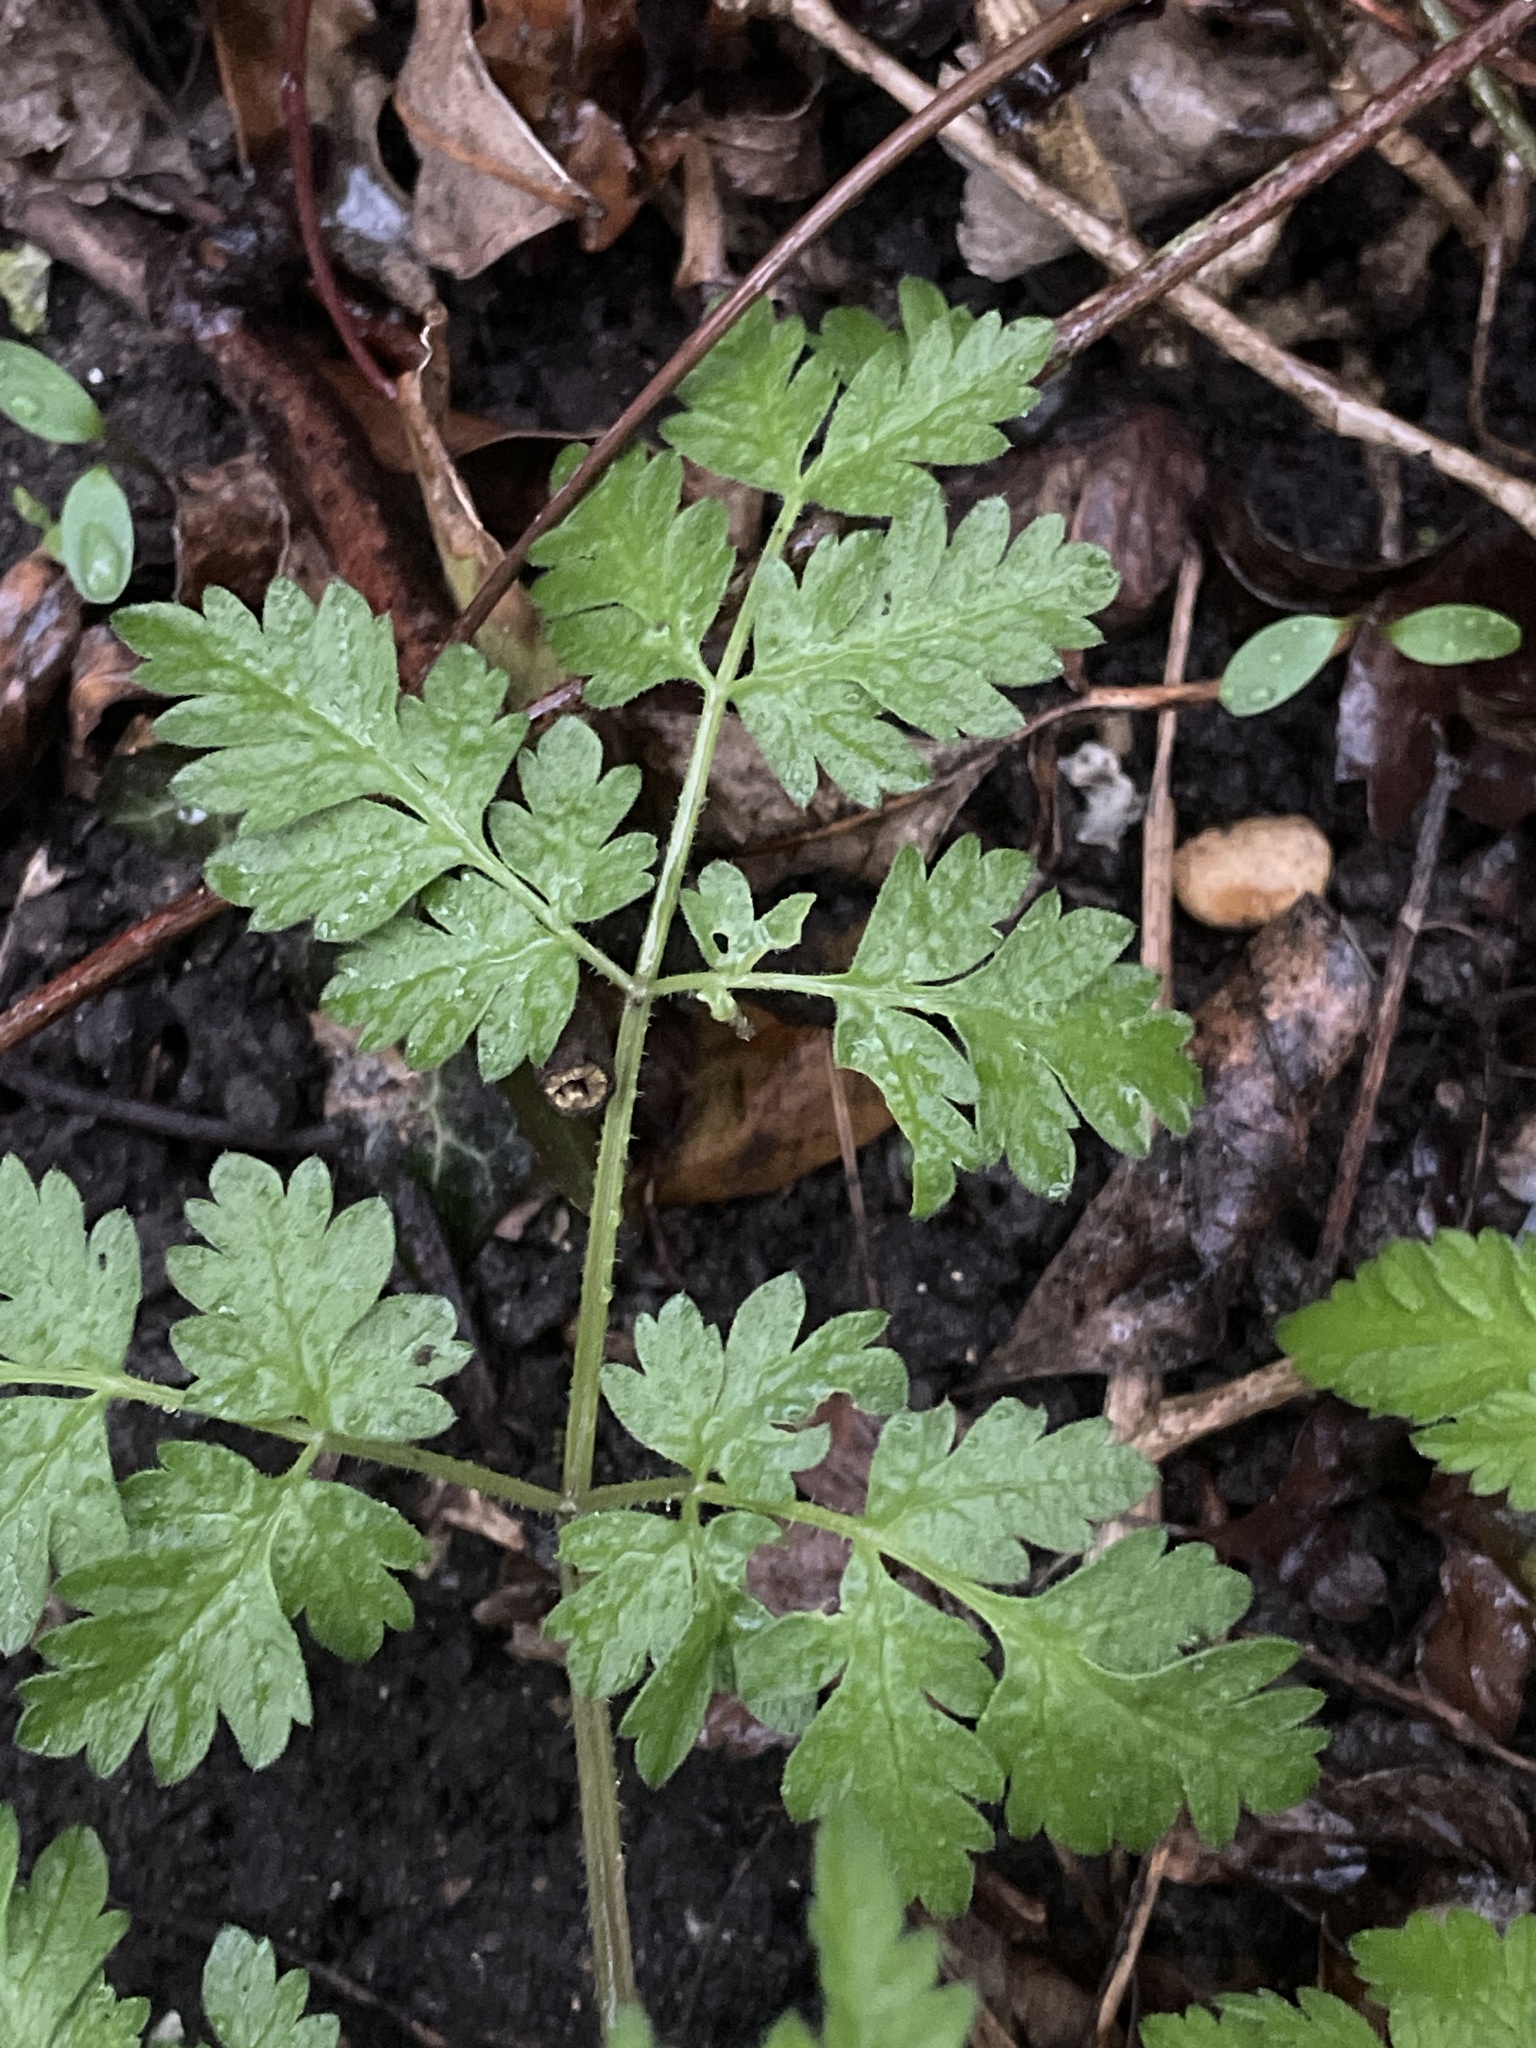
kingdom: Plantae
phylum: Tracheophyta
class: Magnoliopsida
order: Apiales
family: Apiaceae
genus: Anthriscus
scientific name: Anthriscus sylvestris
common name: Cow parsley
